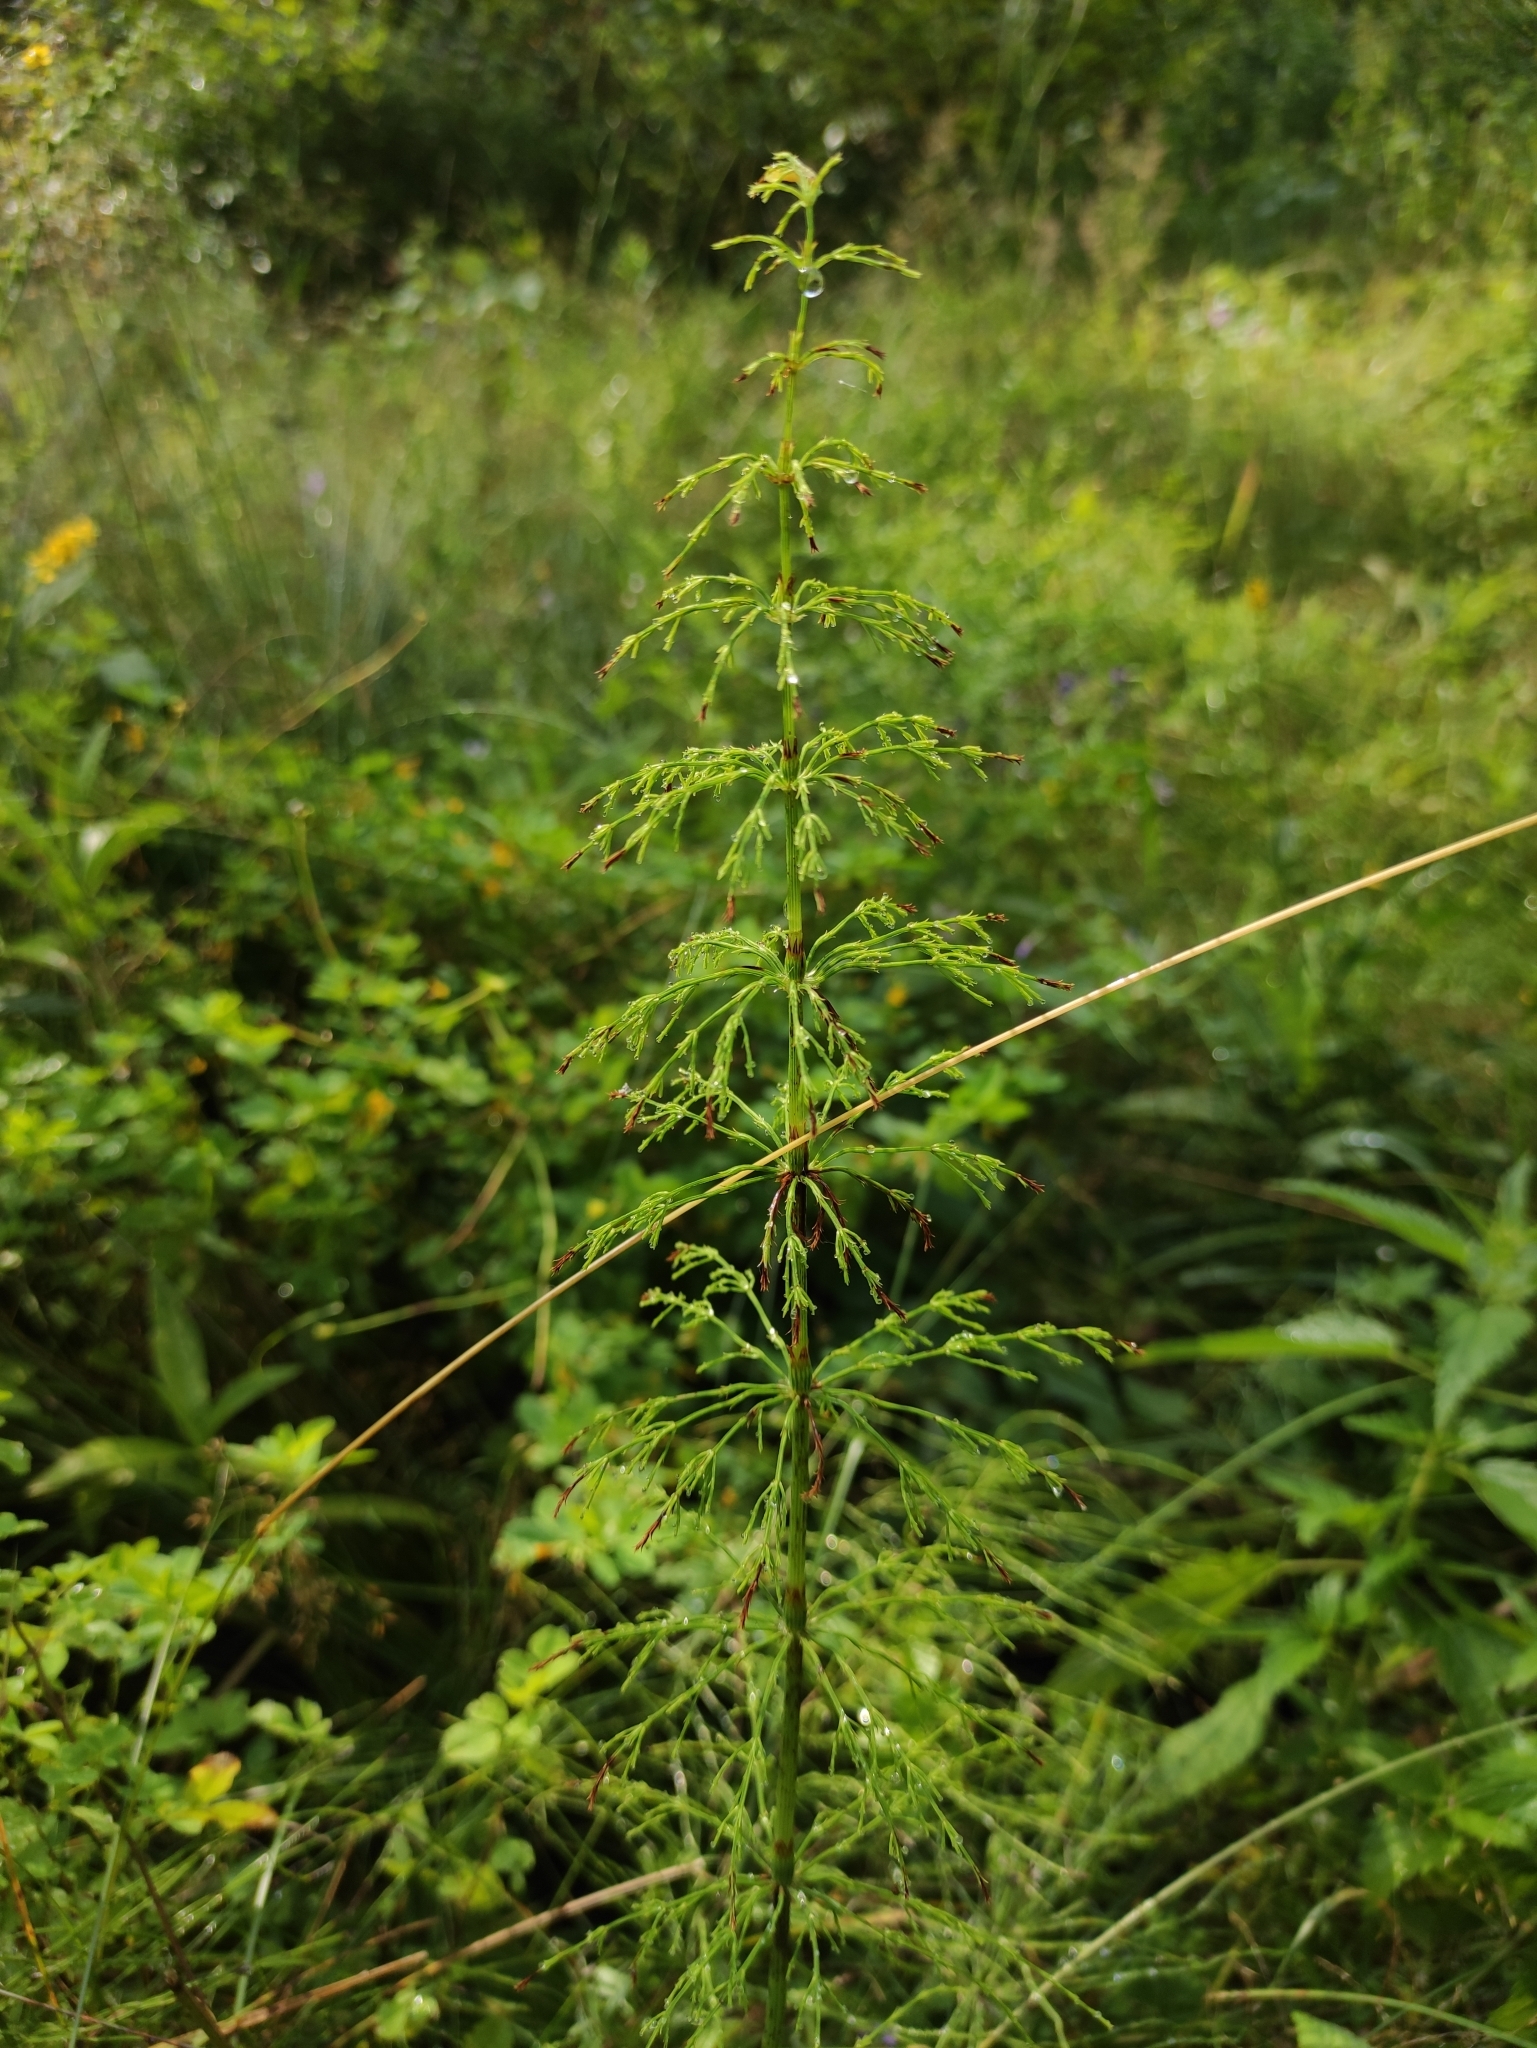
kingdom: Plantae
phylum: Tracheophyta
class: Polypodiopsida
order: Equisetales
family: Equisetaceae
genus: Equisetum
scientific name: Equisetum sylvaticum
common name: Wood horsetail
